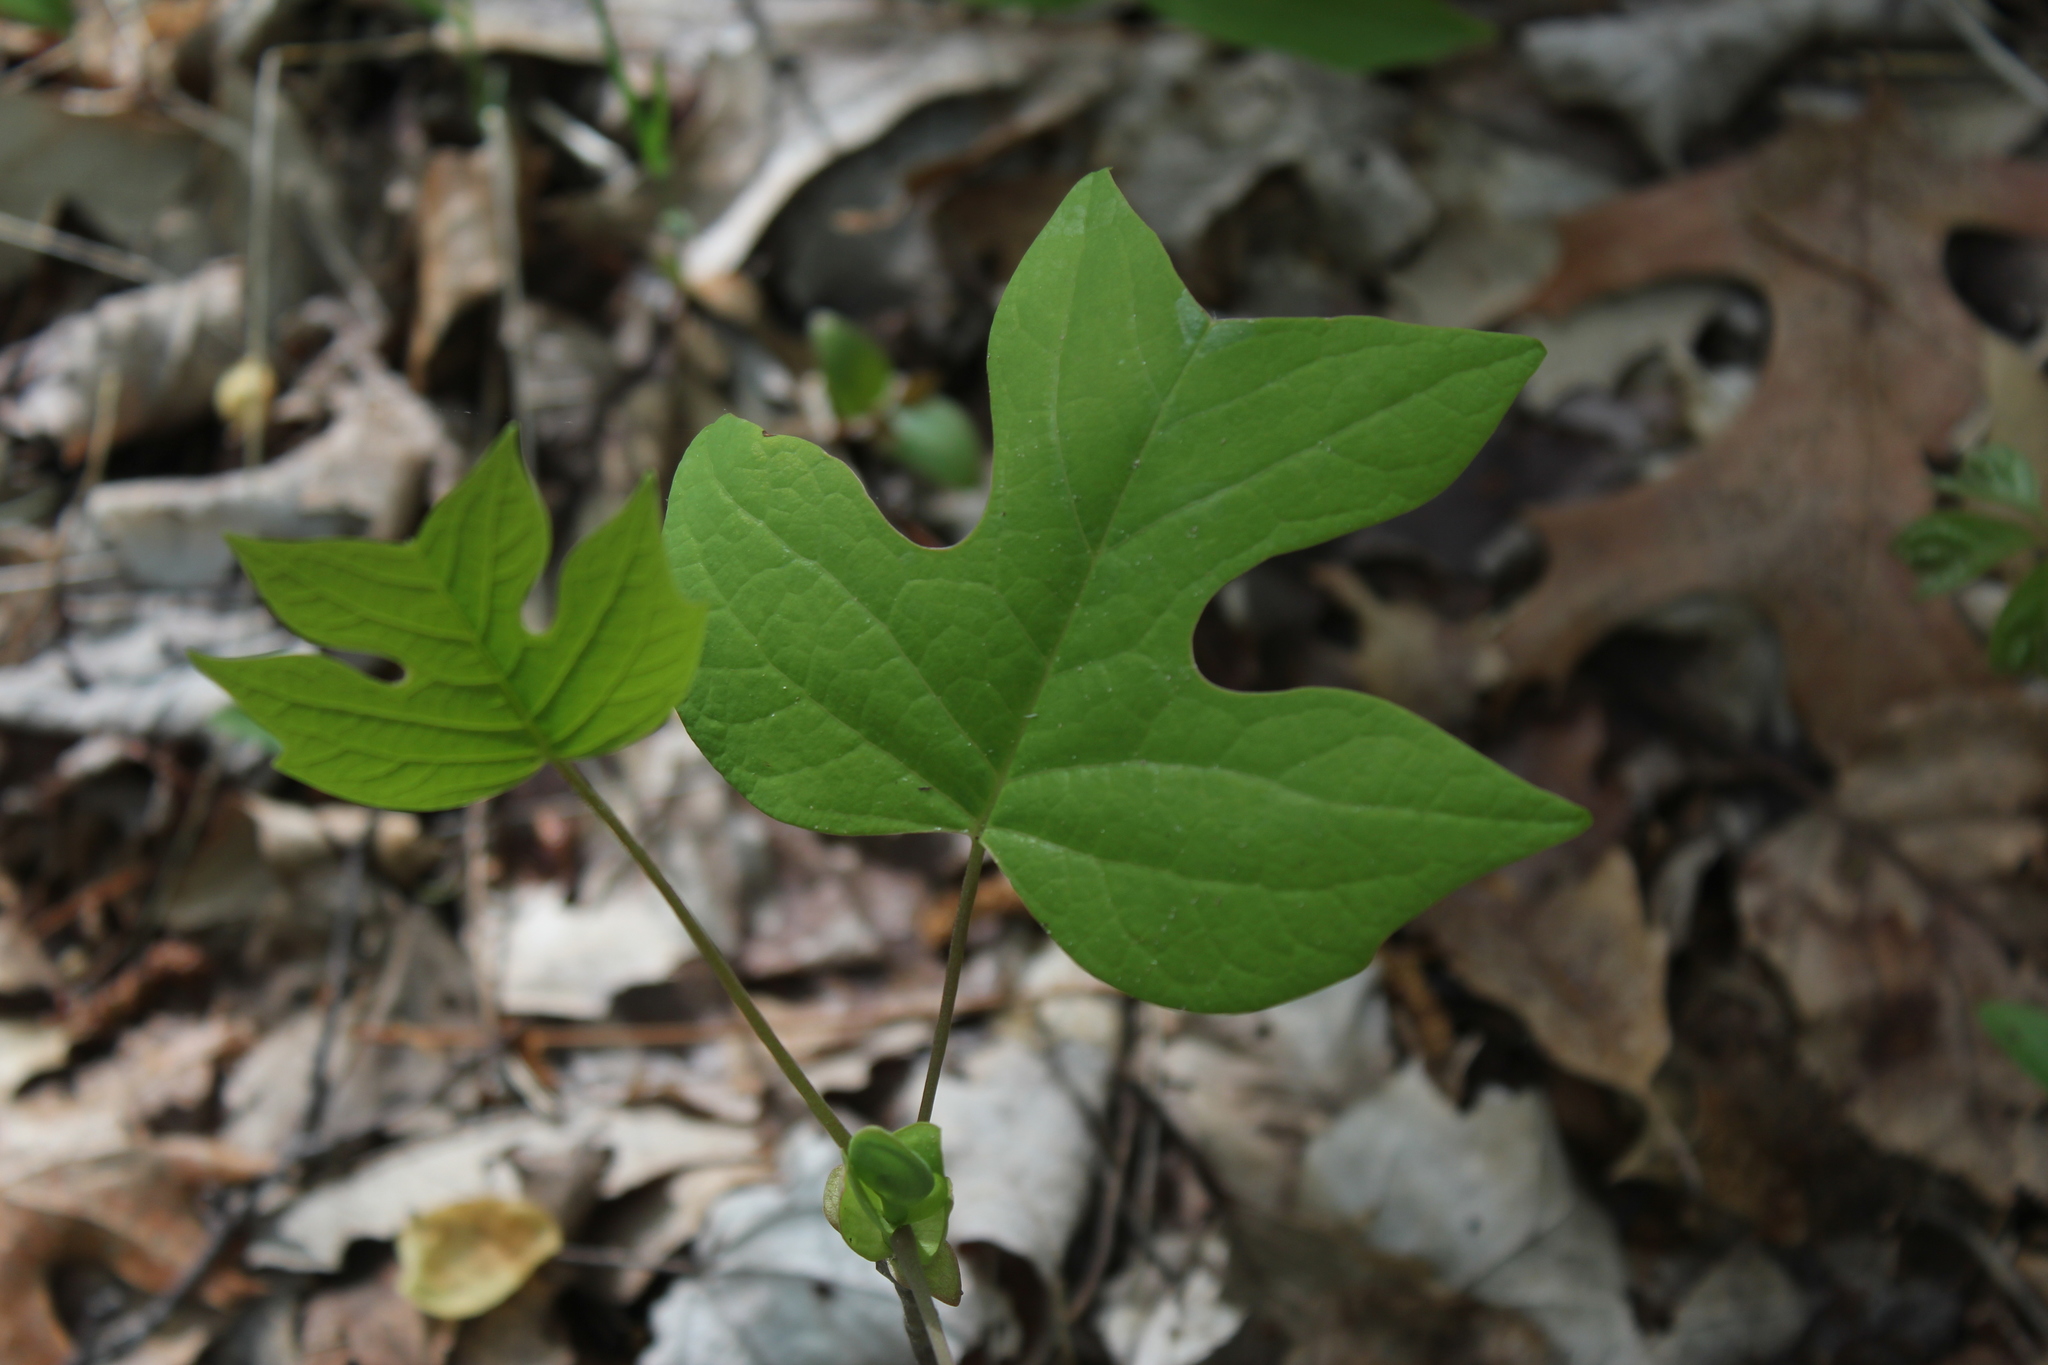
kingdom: Plantae
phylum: Tracheophyta
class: Magnoliopsida
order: Magnoliales
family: Magnoliaceae
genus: Liriodendron
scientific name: Liriodendron tulipifera
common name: Tulip tree
